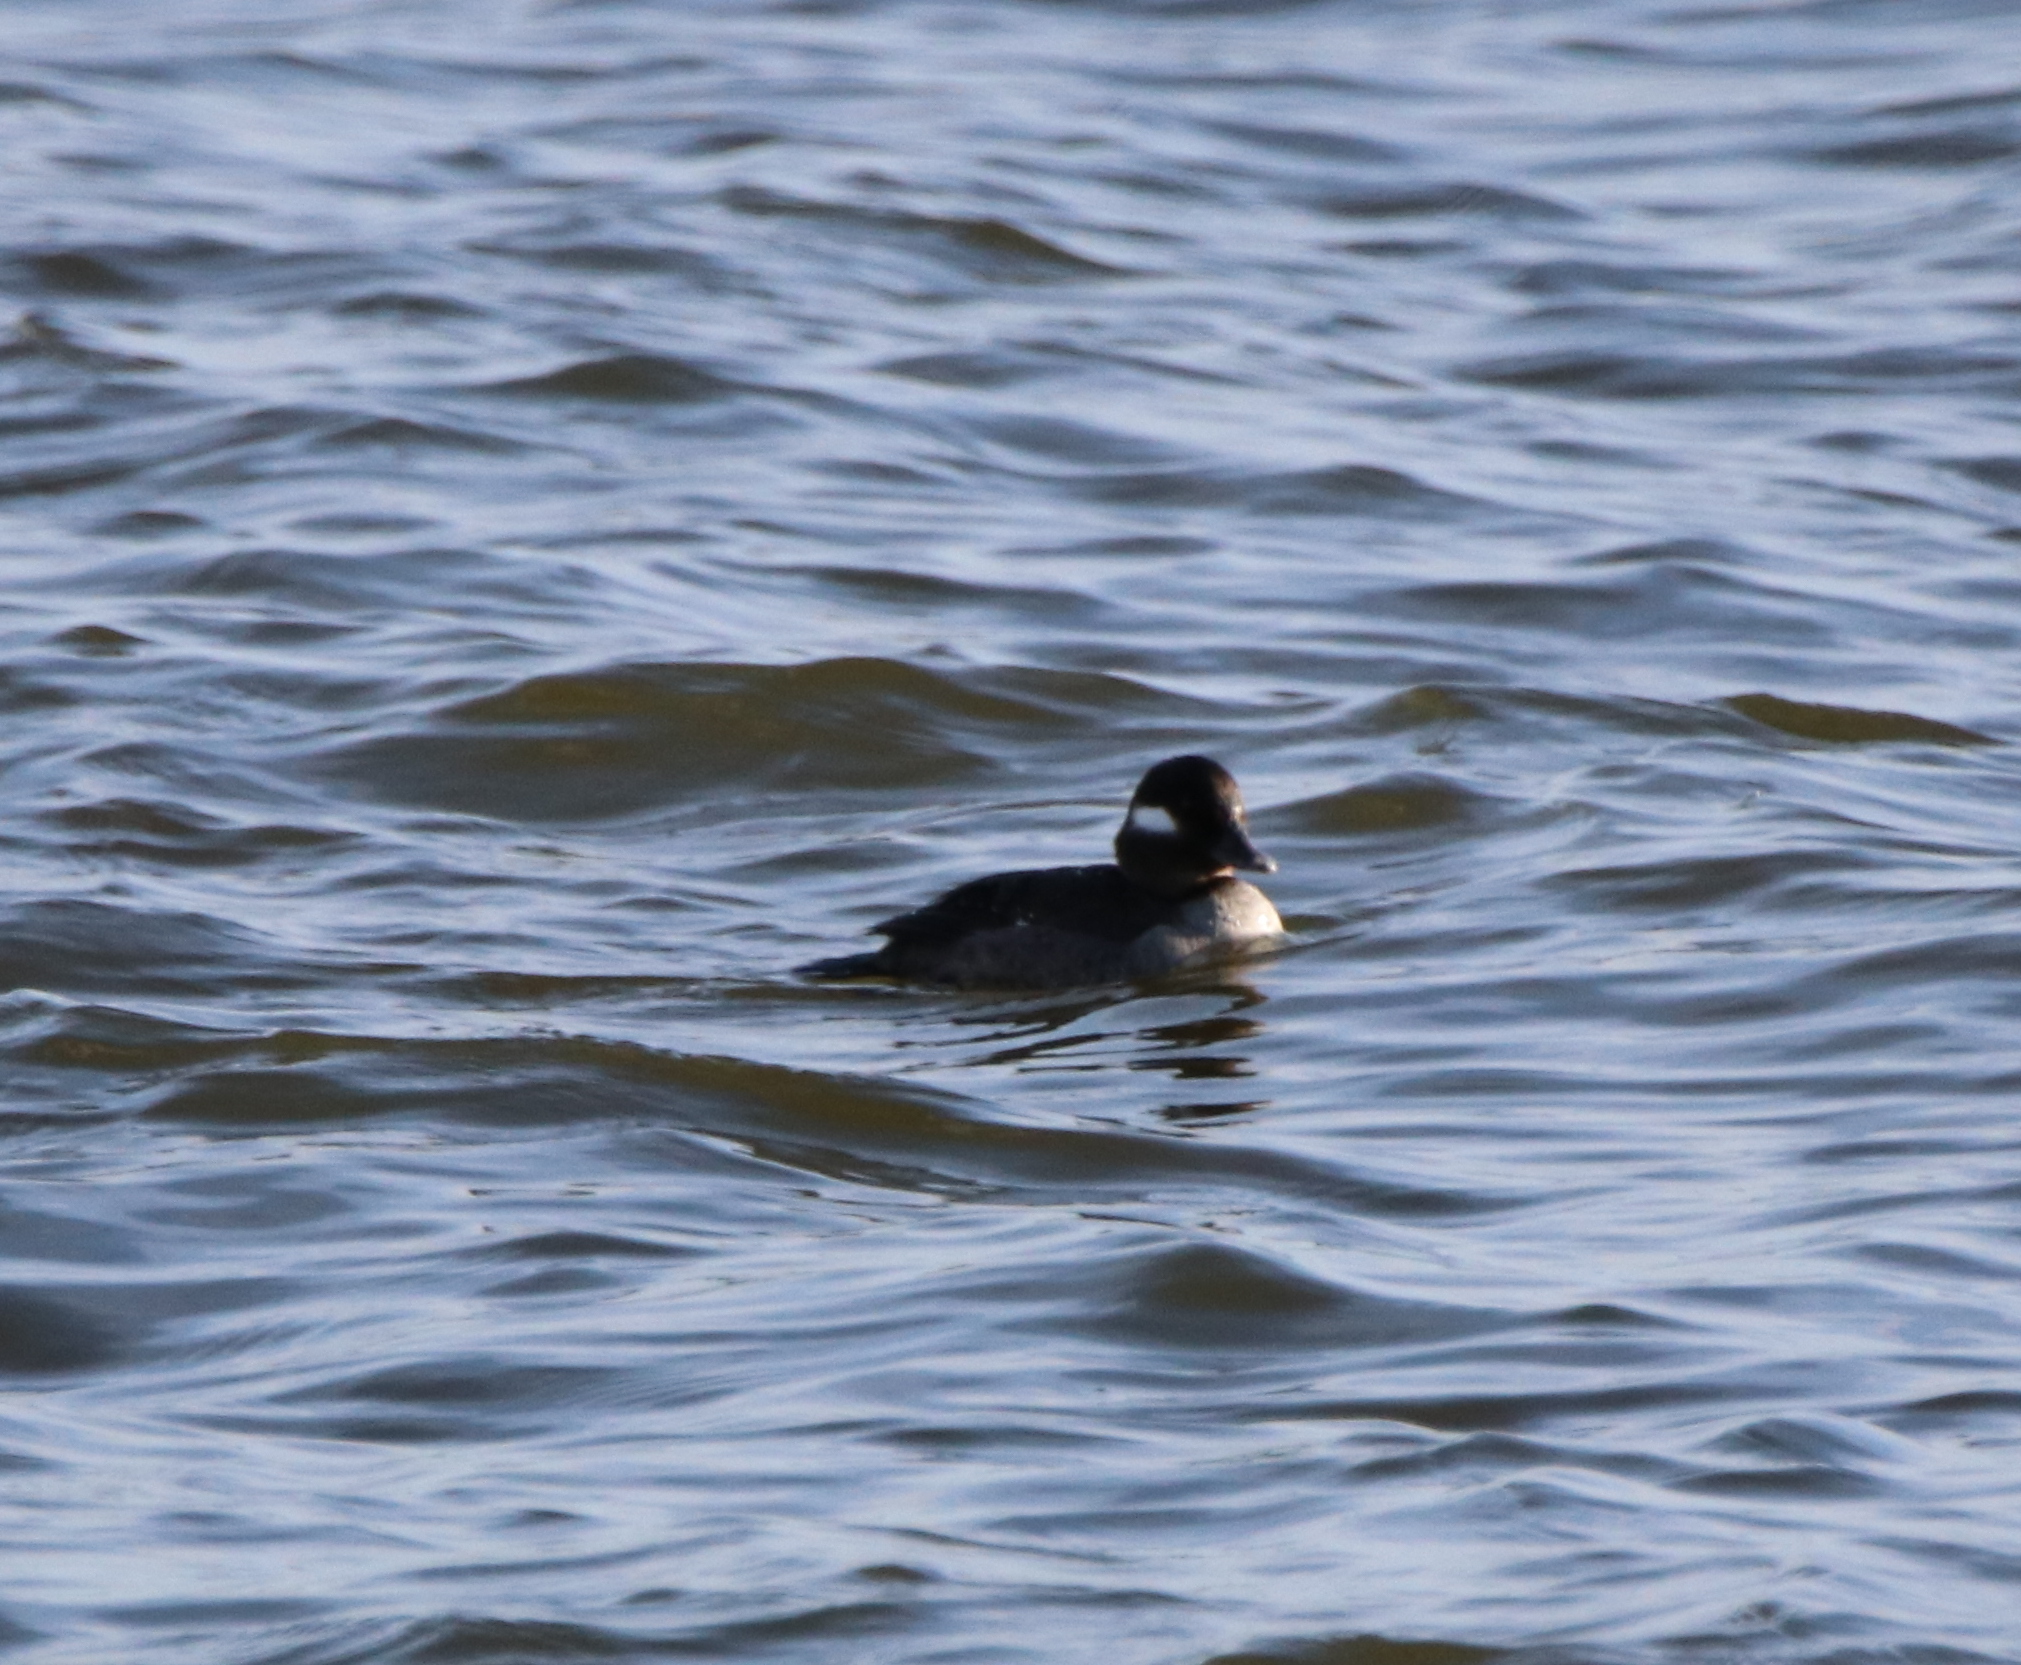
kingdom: Animalia
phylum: Chordata
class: Aves
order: Anseriformes
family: Anatidae
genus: Bucephala
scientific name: Bucephala albeola
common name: Bufflehead
